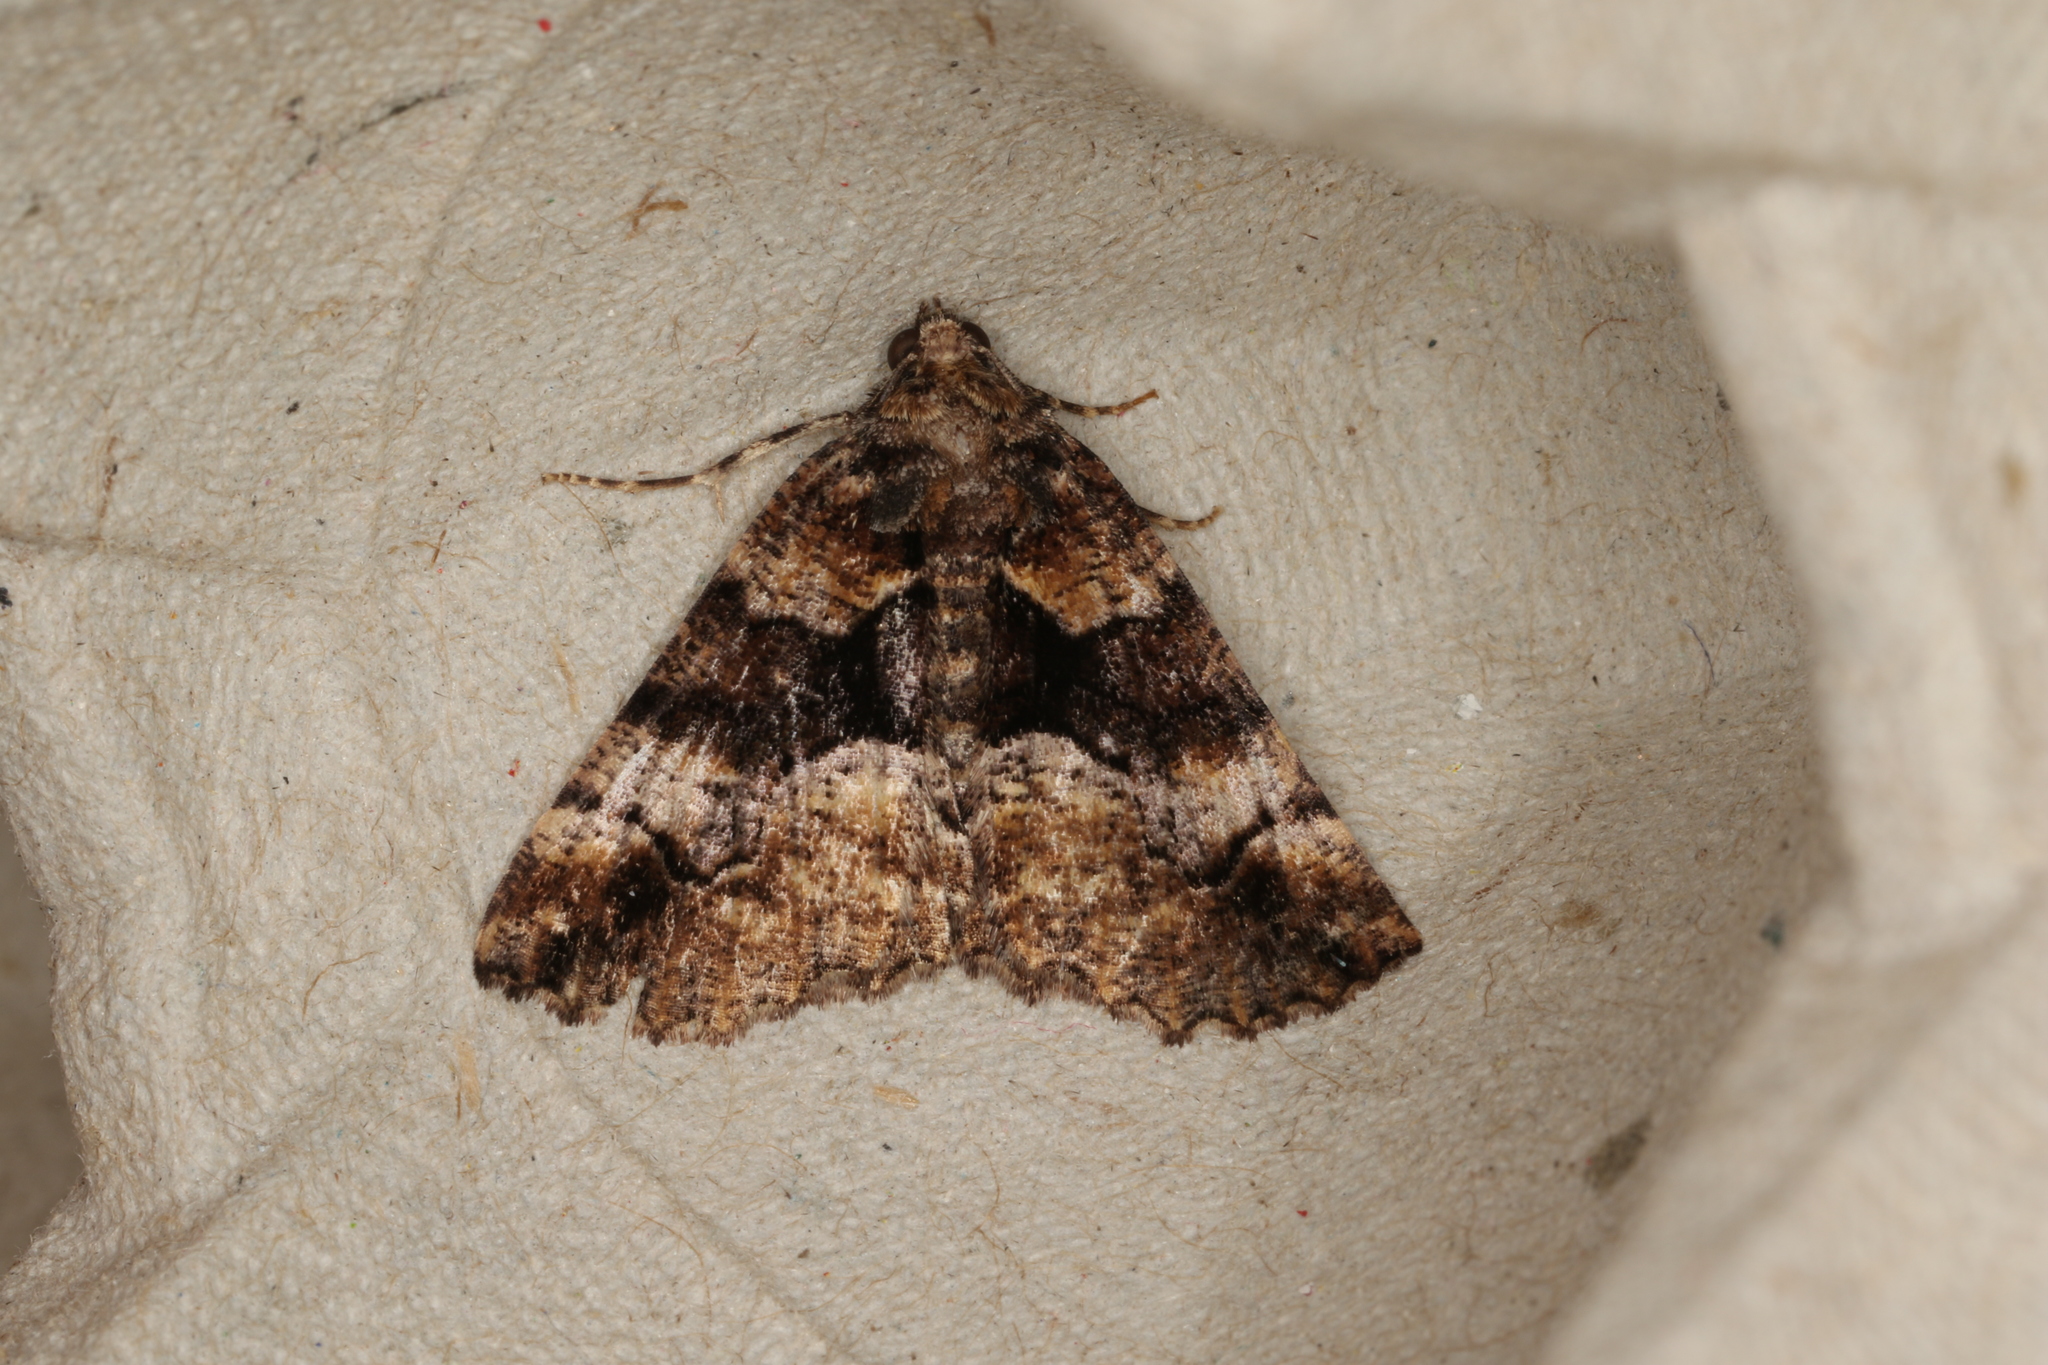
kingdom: Animalia
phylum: Arthropoda
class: Insecta
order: Lepidoptera
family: Geometridae
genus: Gastrina
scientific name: Gastrina cristaria
